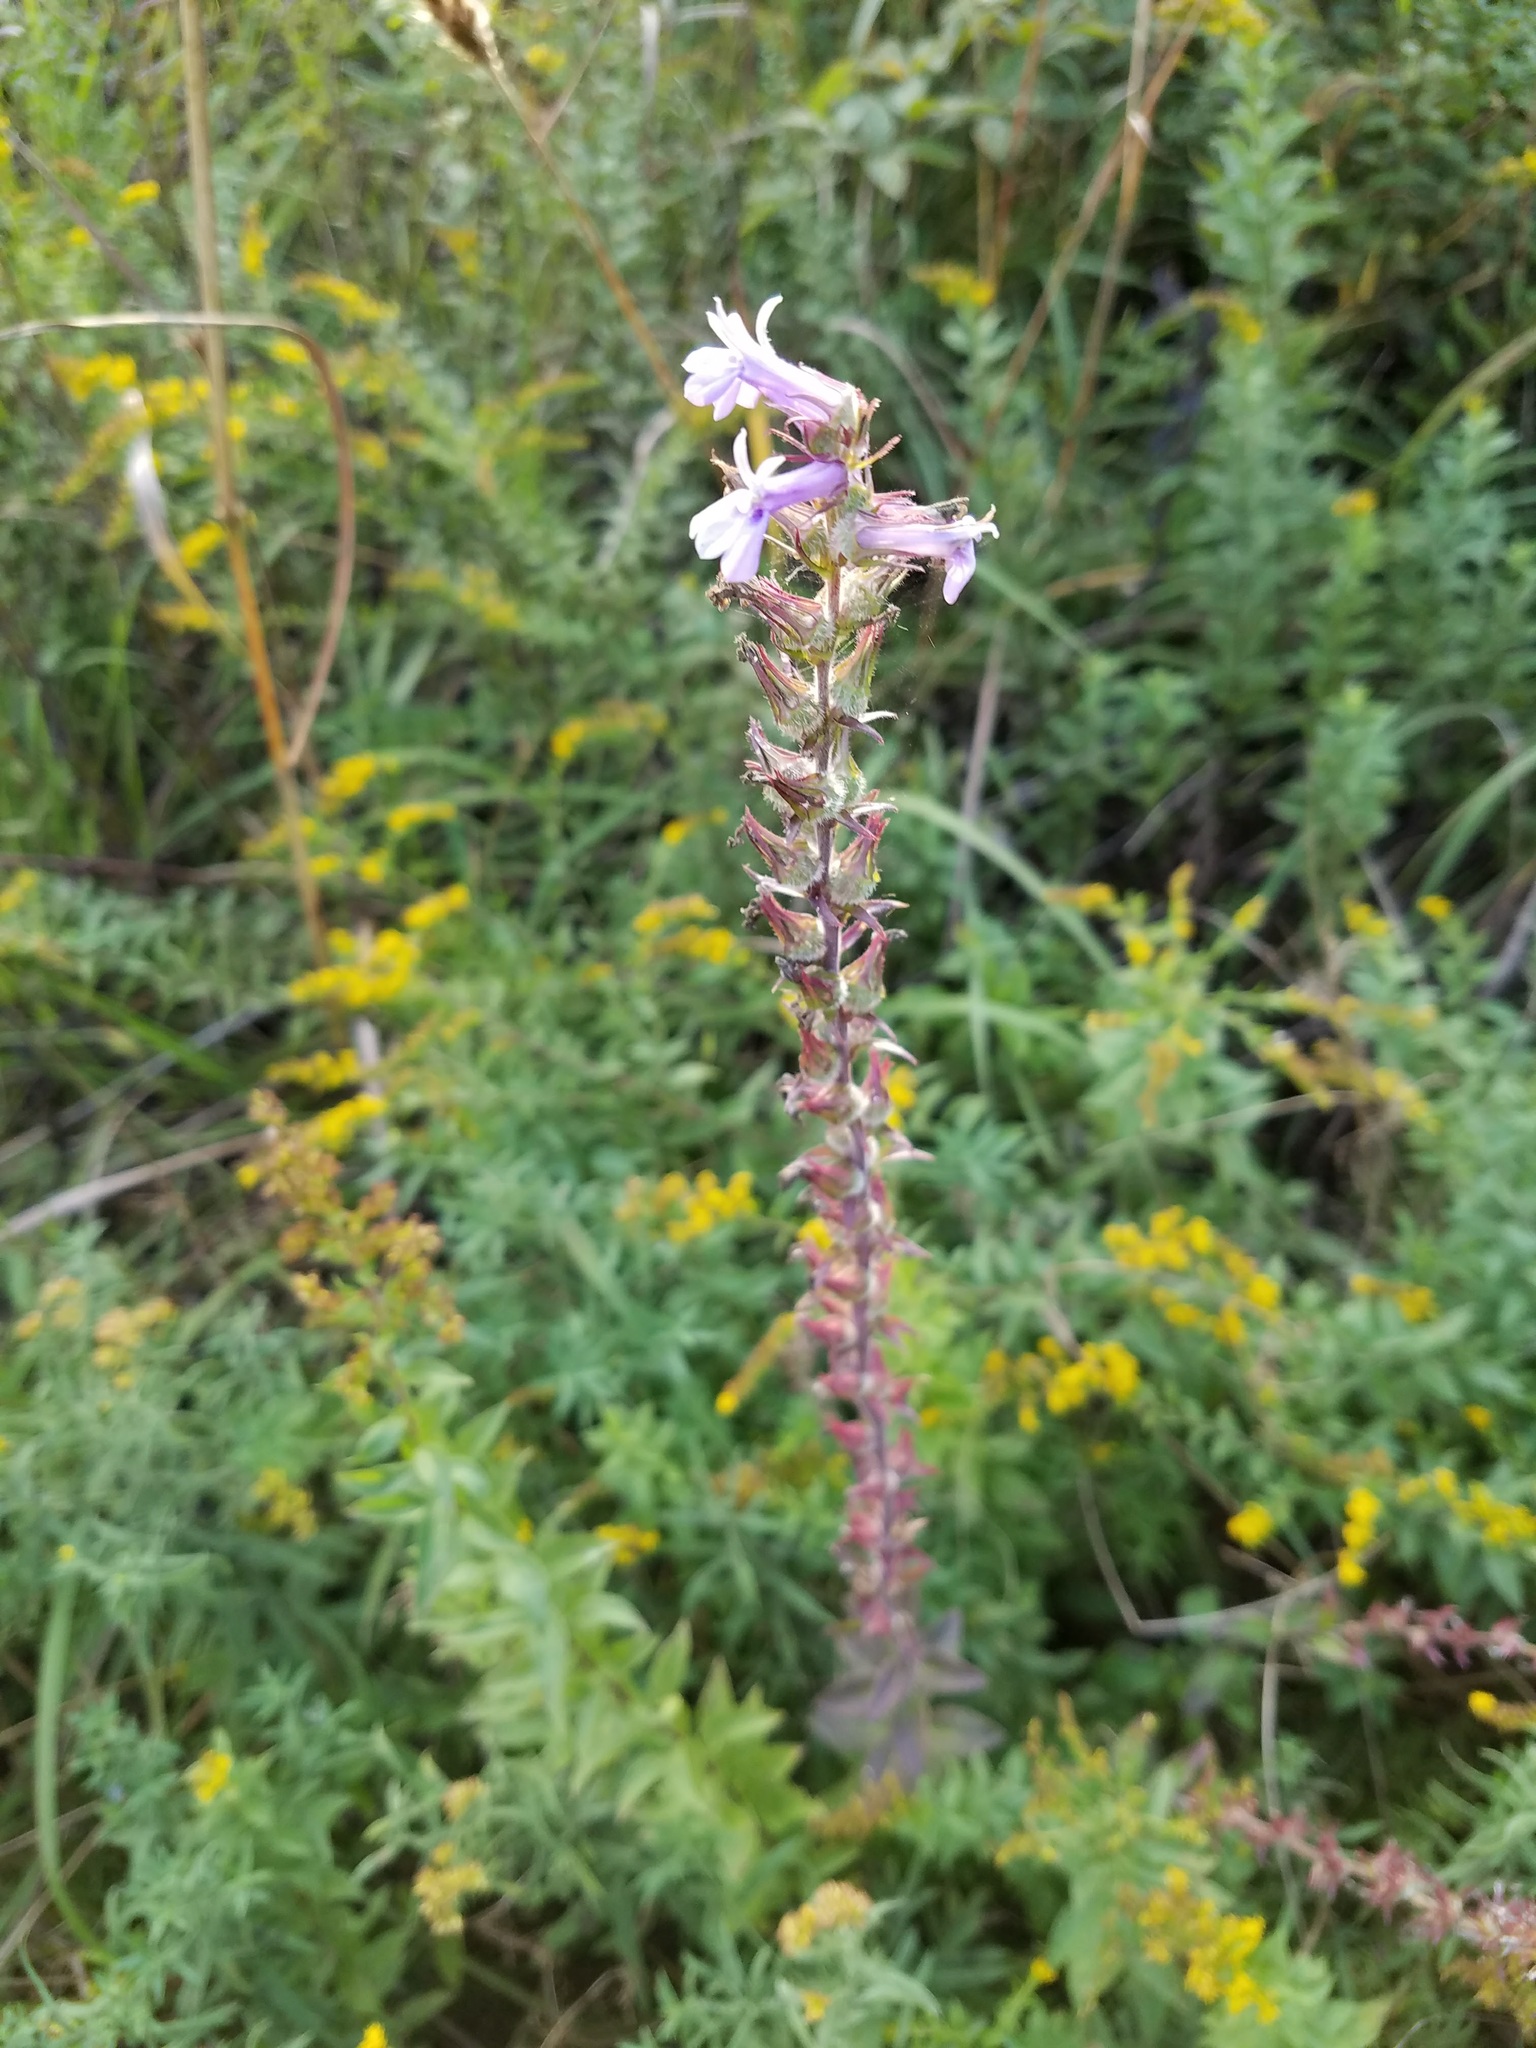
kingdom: Plantae
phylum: Tracheophyta
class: Magnoliopsida
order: Asterales
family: Campanulaceae
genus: Lobelia
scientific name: Lobelia puberula
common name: Purple dewdrop
